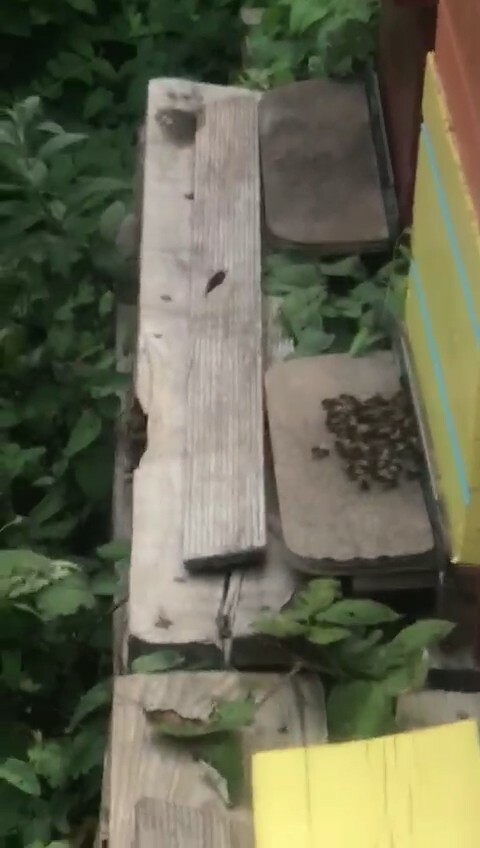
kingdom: Animalia
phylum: Arthropoda
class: Insecta
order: Hymenoptera
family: Vespidae
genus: Vespa
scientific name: Vespa velutina
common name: Asian hornet
